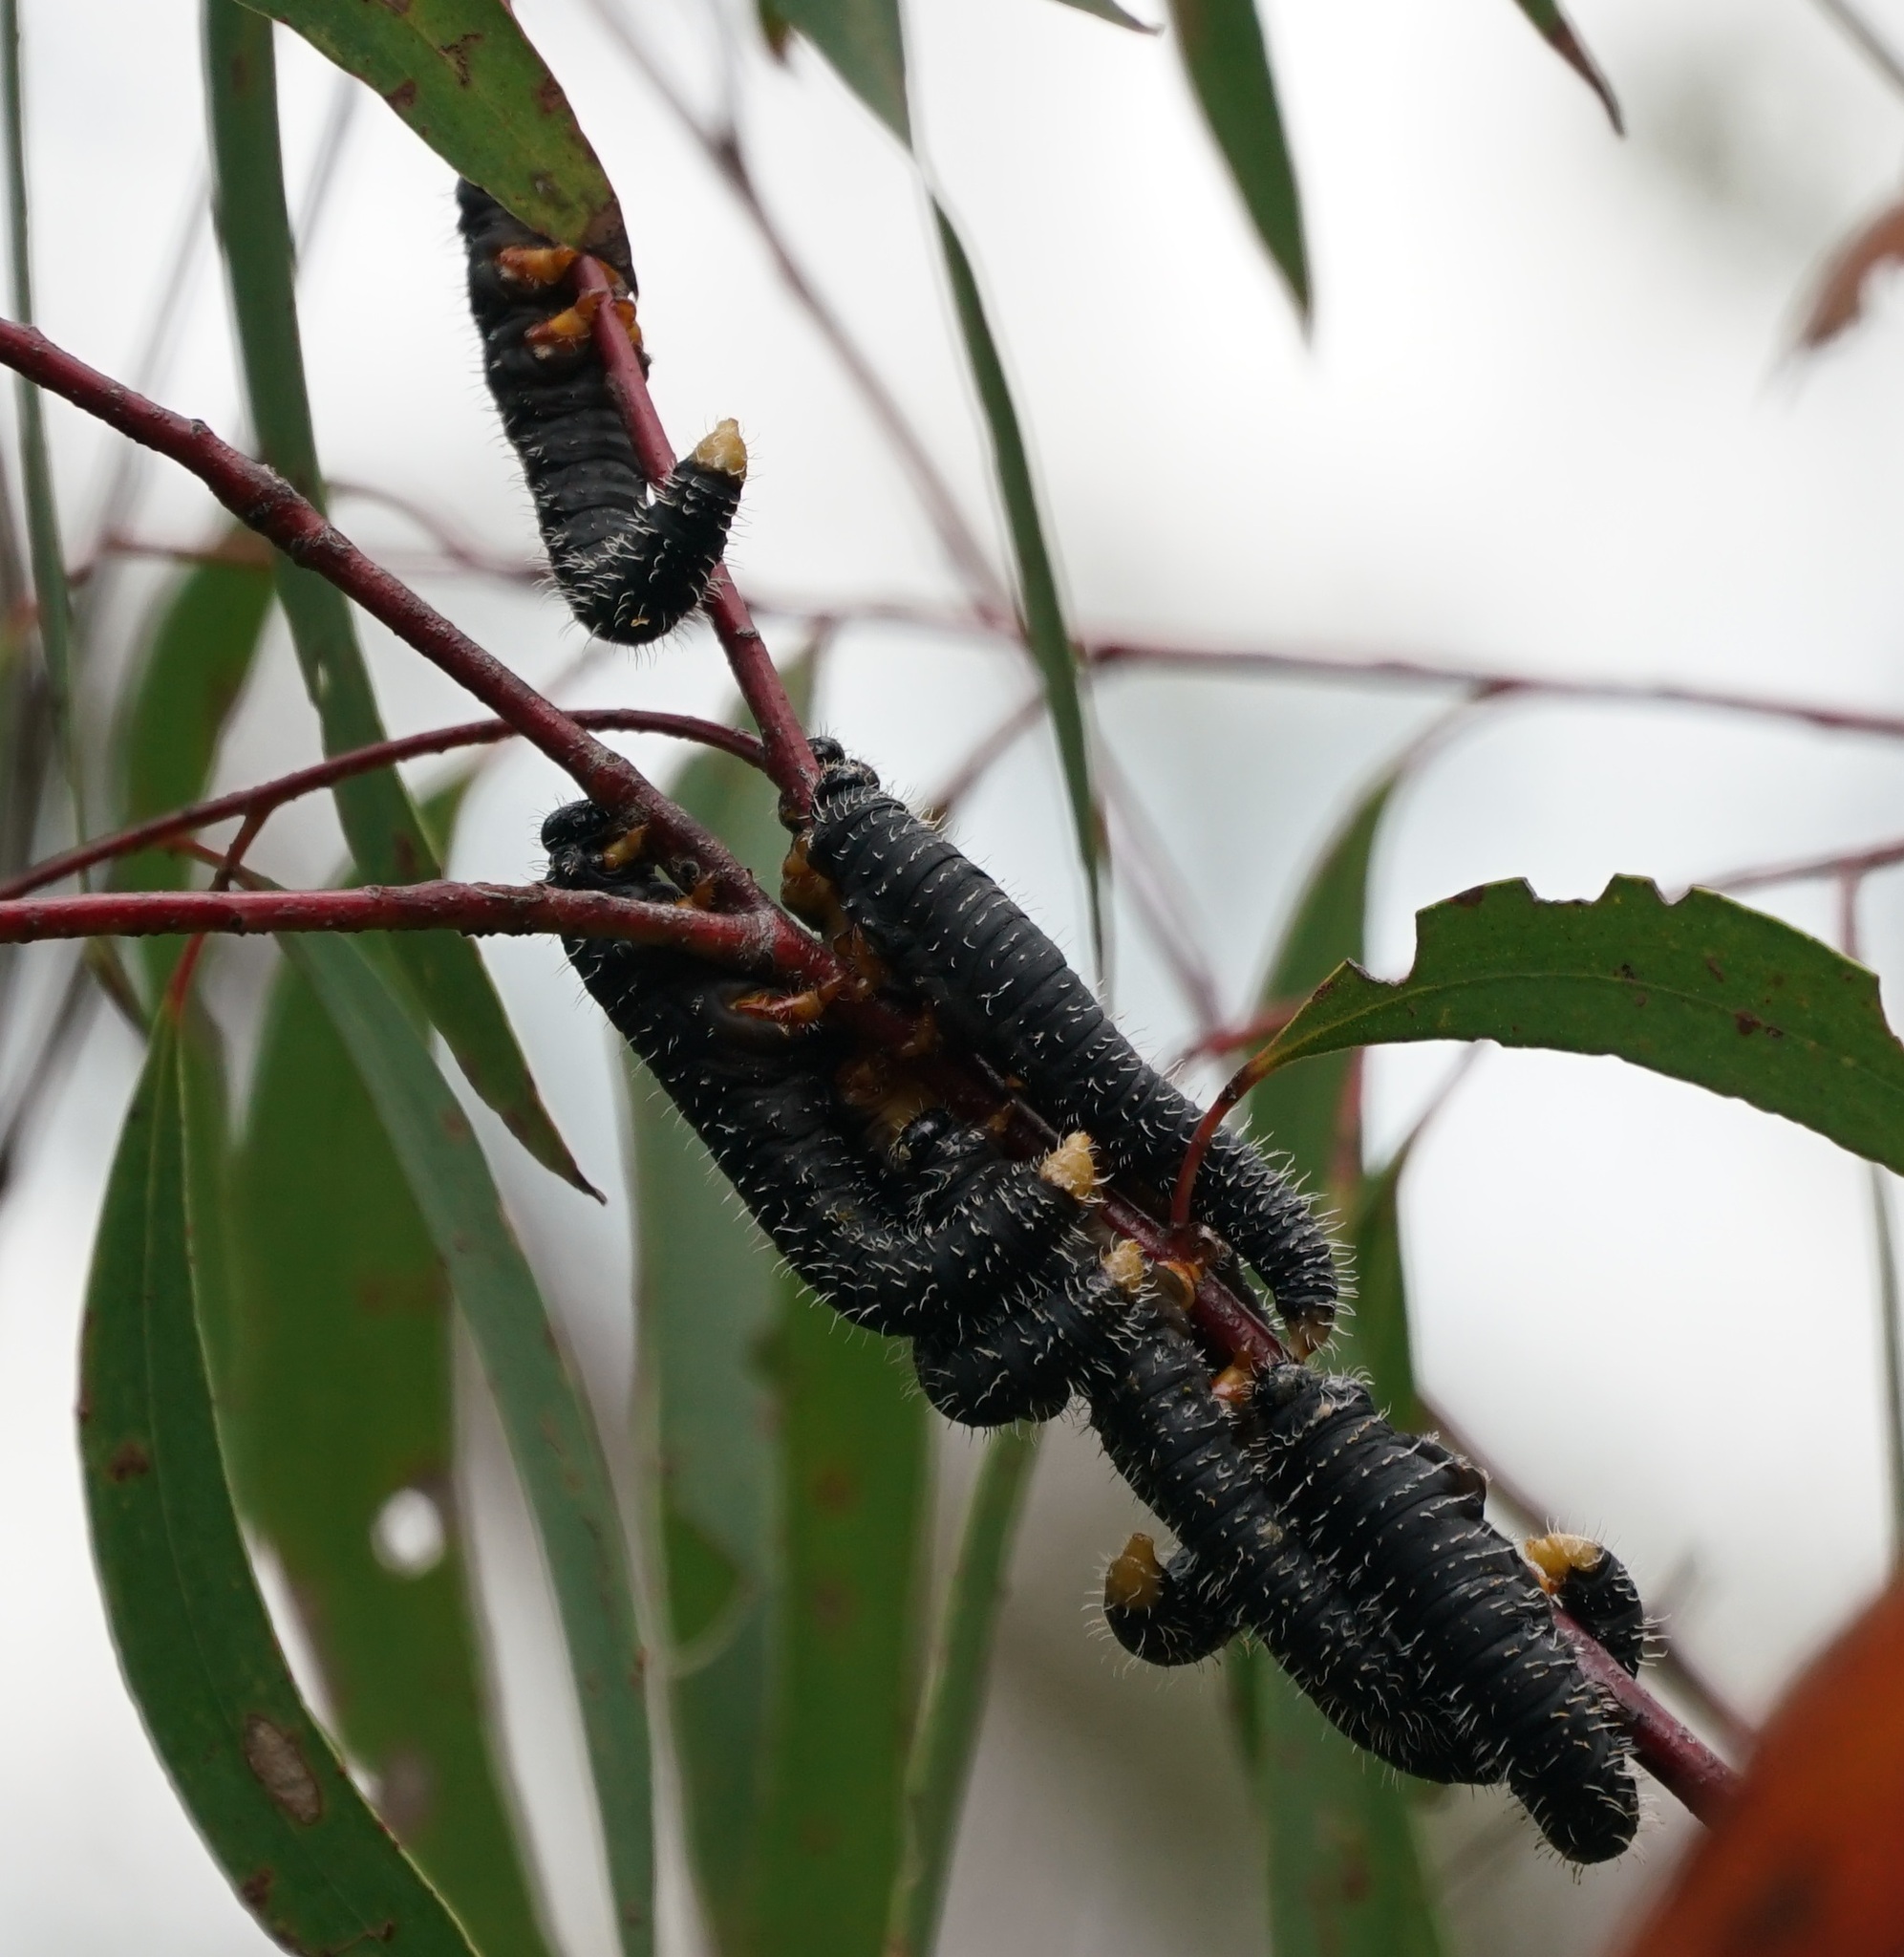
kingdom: Animalia
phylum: Arthropoda
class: Insecta
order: Hymenoptera
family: Pergidae
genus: Perga
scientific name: Perga affinis
